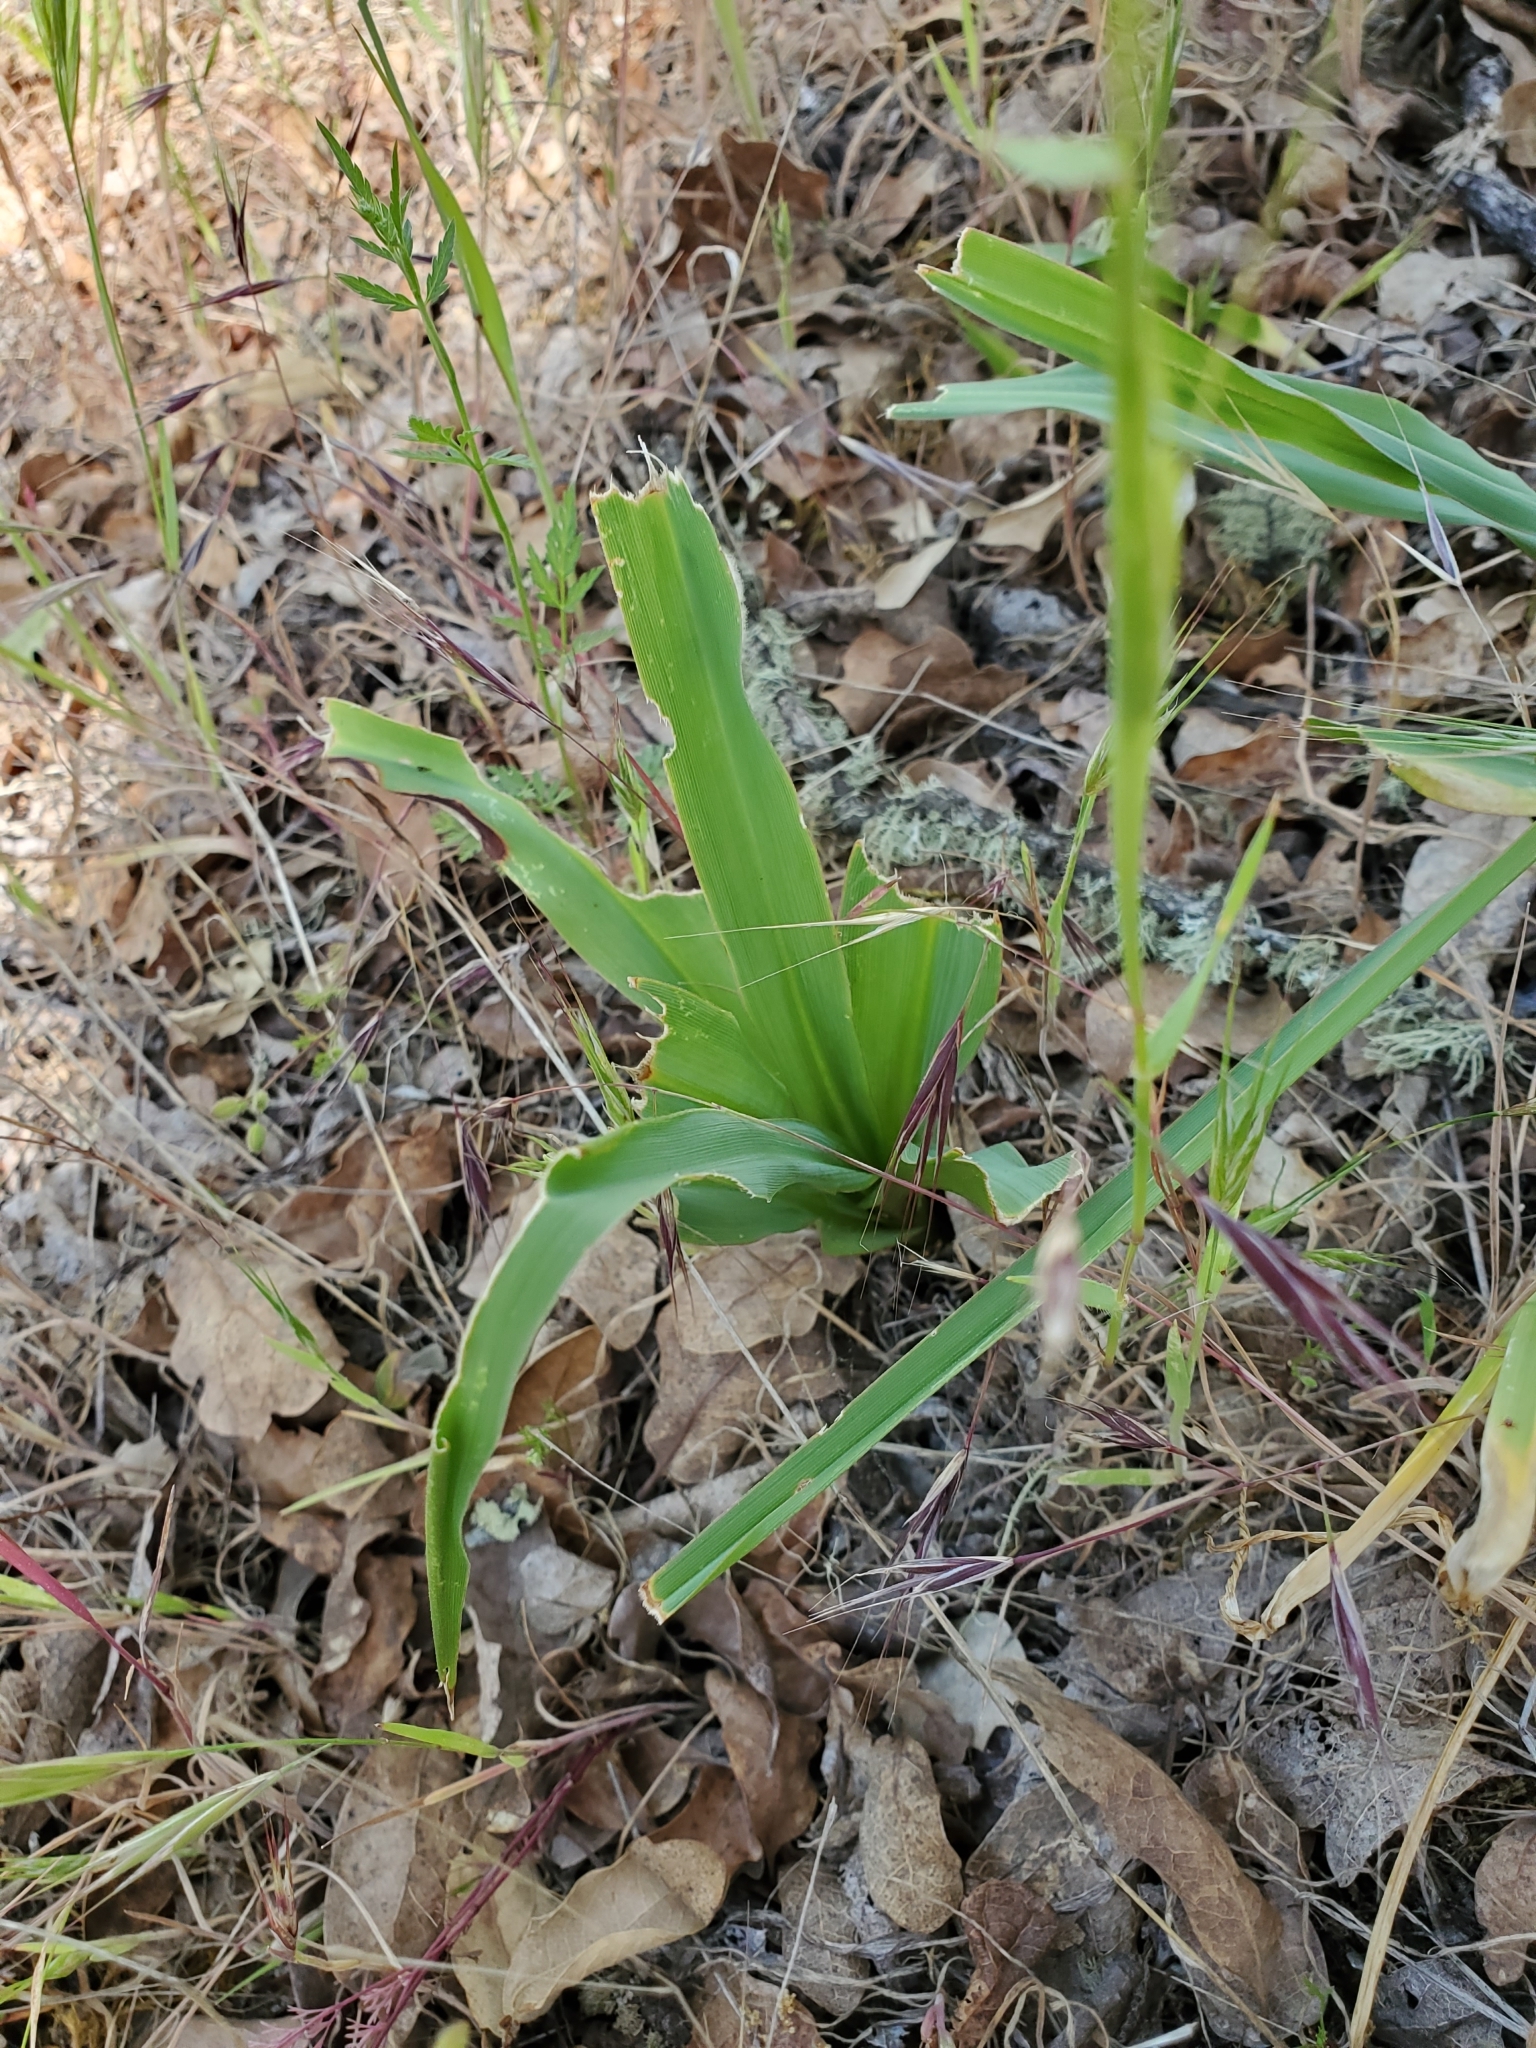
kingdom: Plantae
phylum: Tracheophyta
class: Liliopsida
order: Asparagales
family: Asparagaceae
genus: Chlorogalum
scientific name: Chlorogalum pomeridianum
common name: Amole
